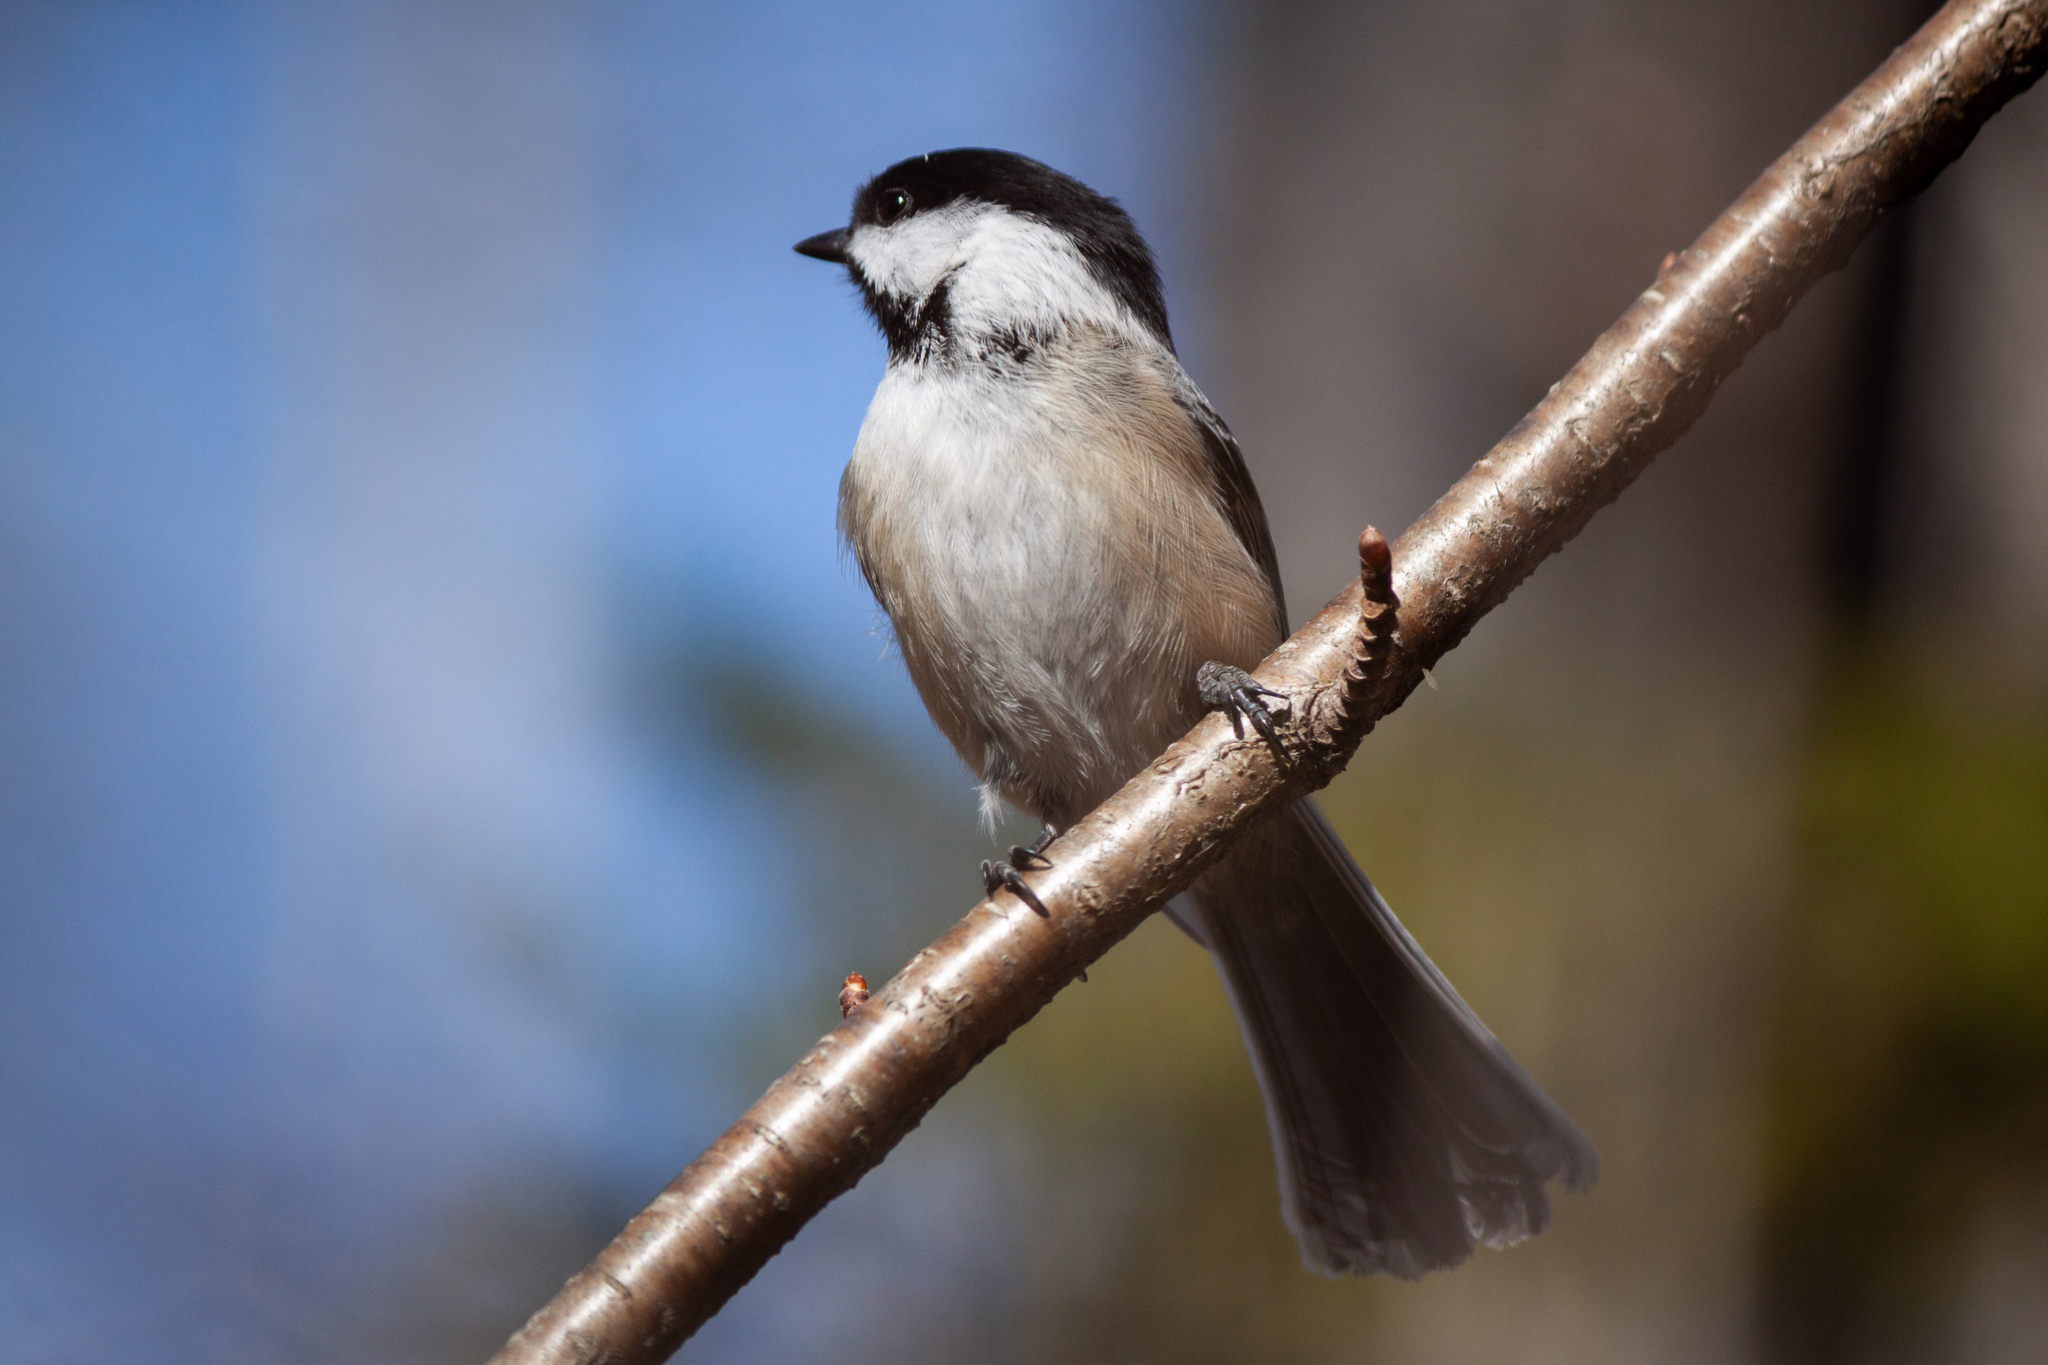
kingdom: Animalia
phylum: Chordata
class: Aves
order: Passeriformes
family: Paridae
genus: Poecile
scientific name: Poecile atricapillus
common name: Black-capped chickadee
